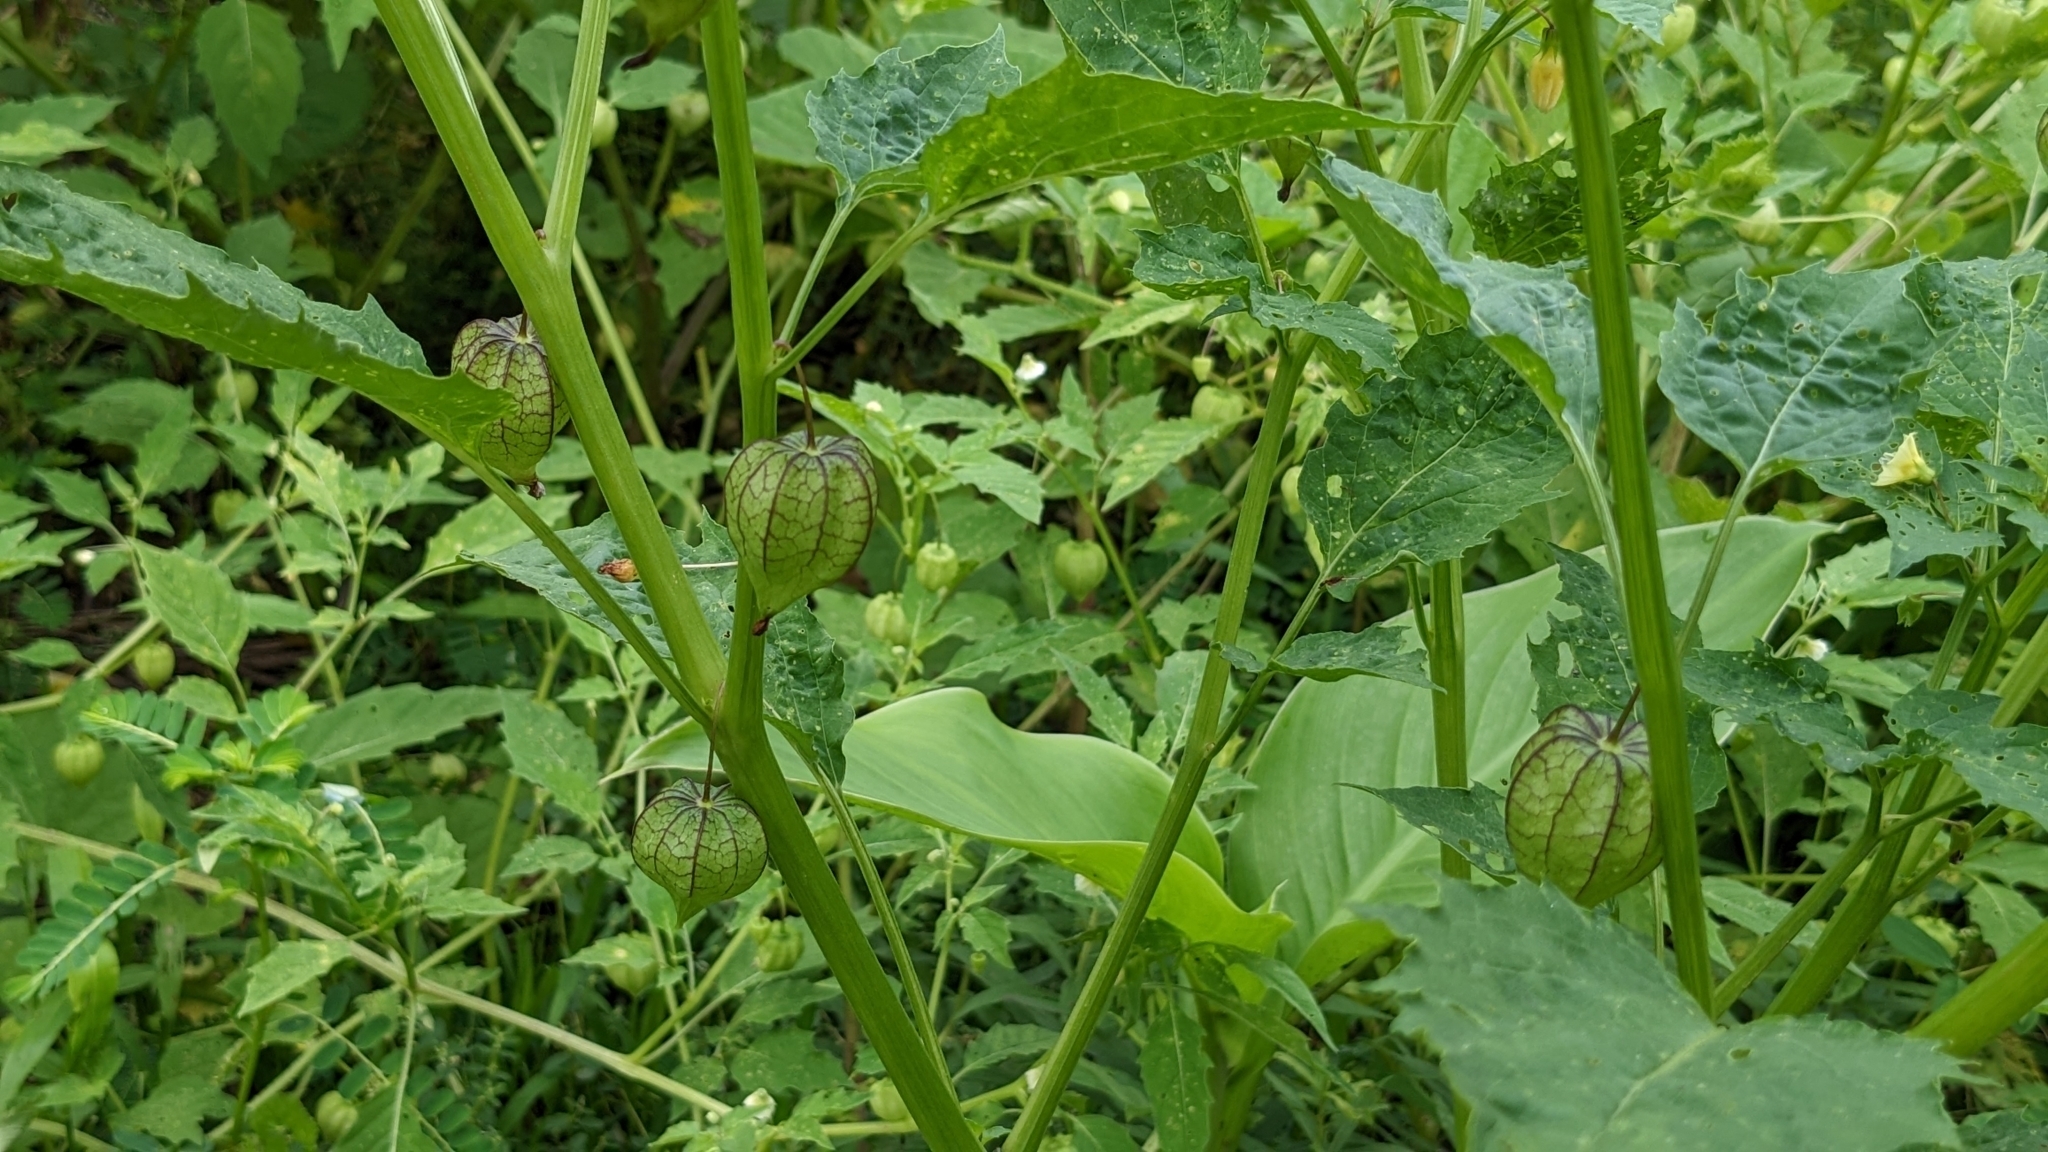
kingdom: Plantae
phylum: Tracheophyta
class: Magnoliopsida
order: Solanales
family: Solanaceae
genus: Physalis
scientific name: Physalis angulata
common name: Angular winter-cherry
